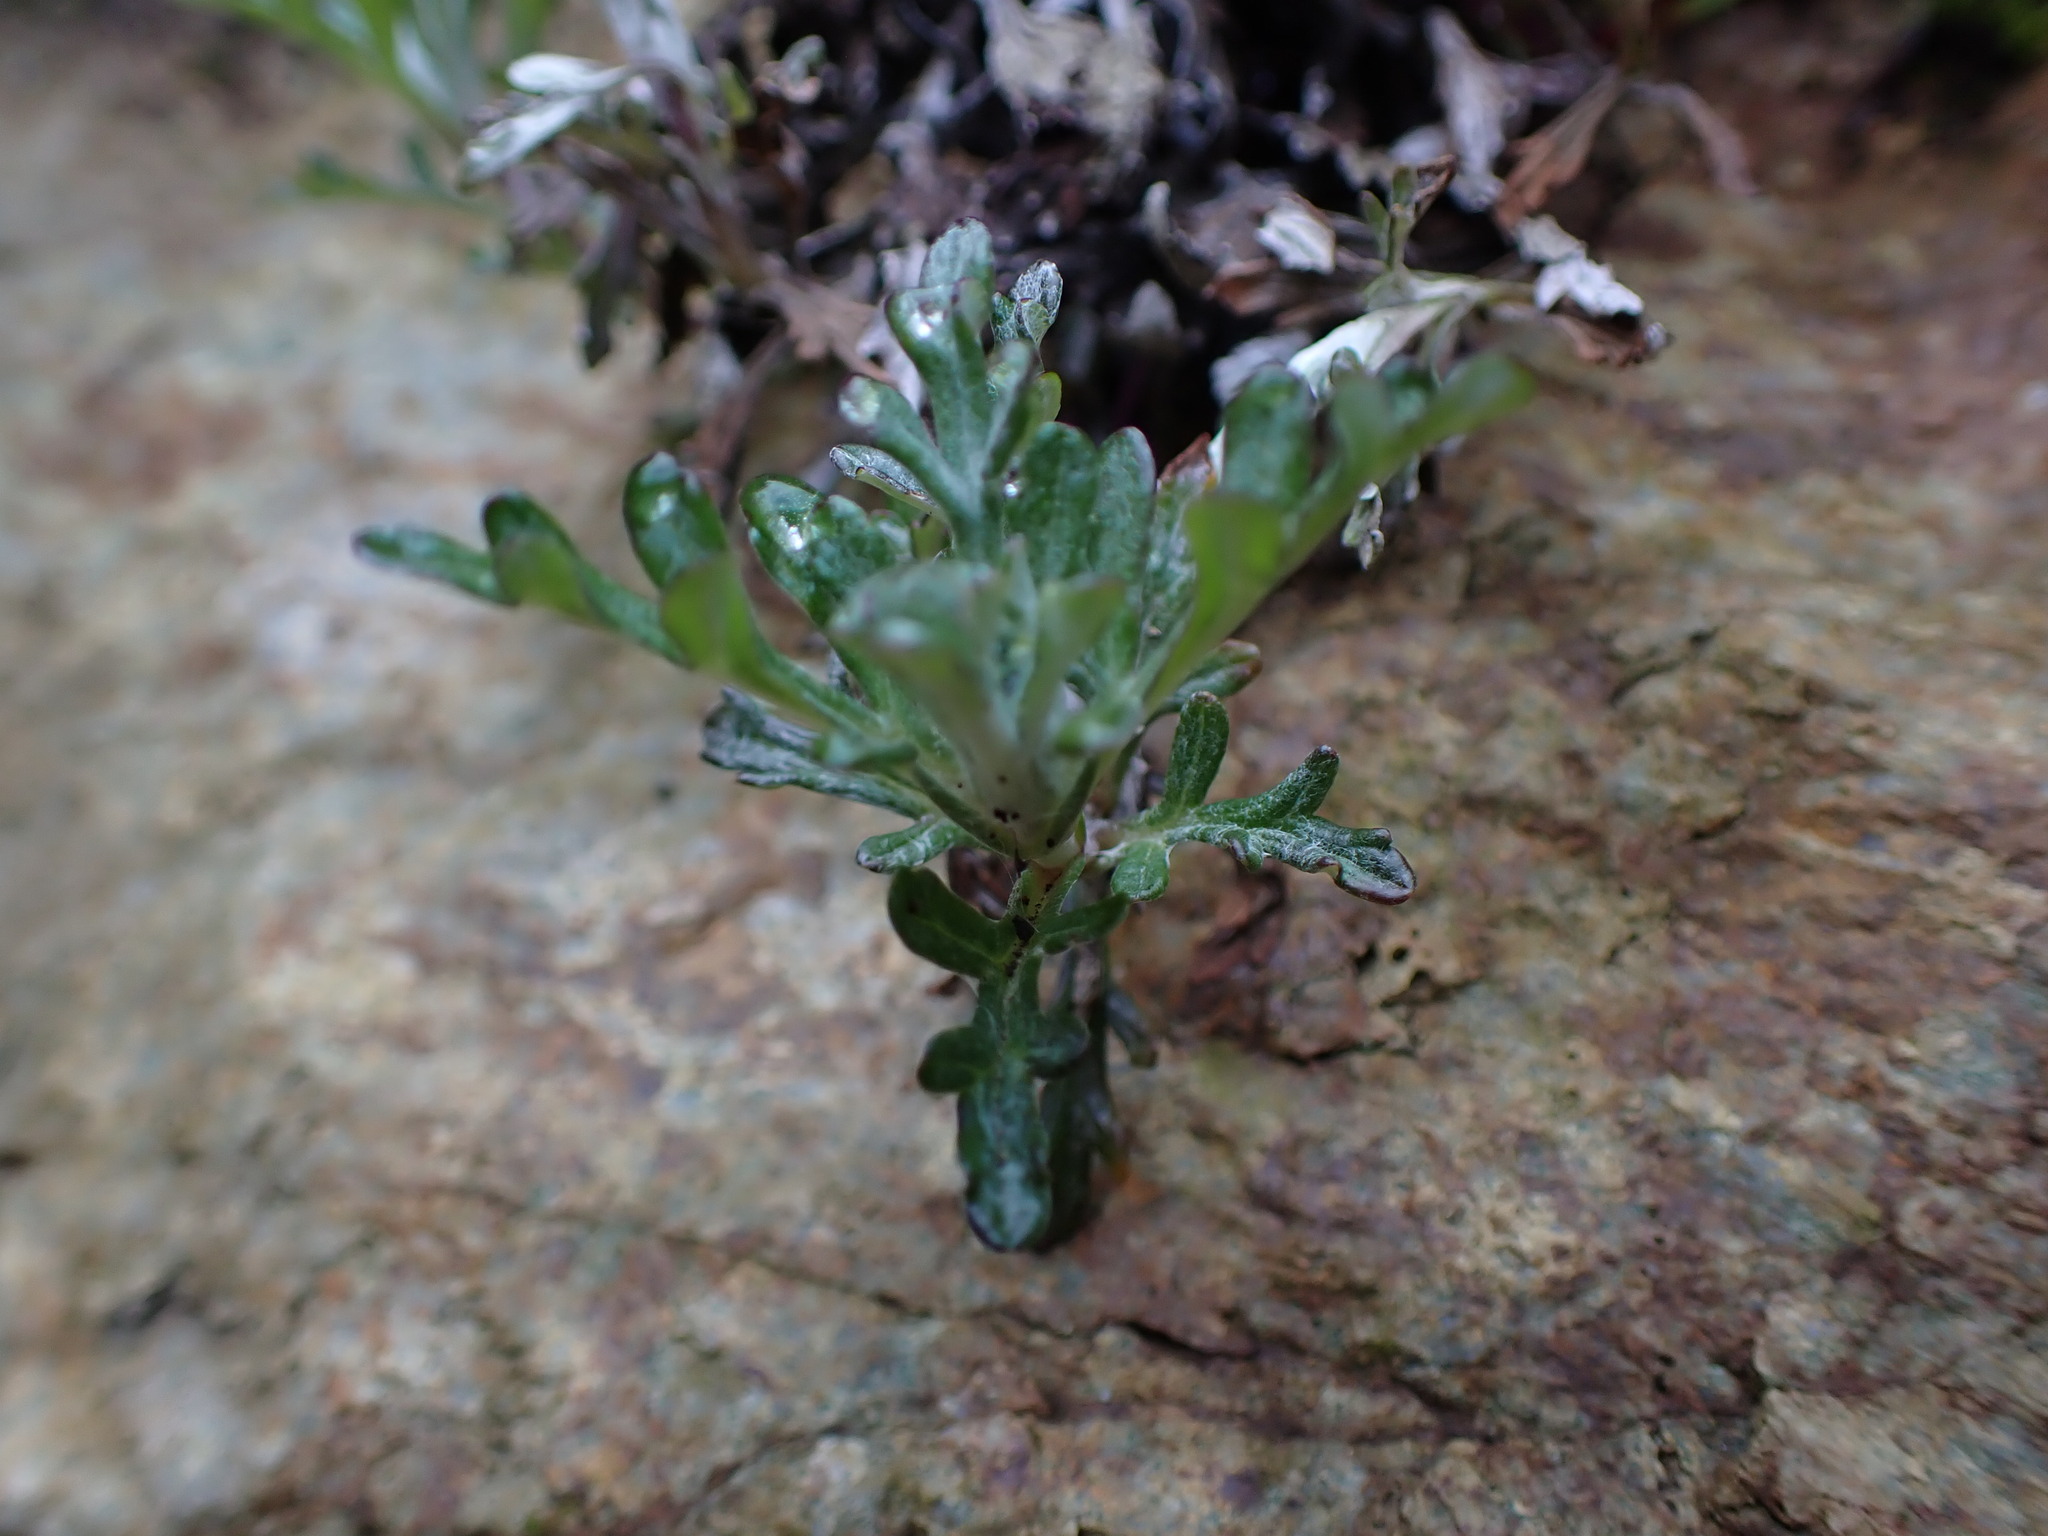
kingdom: Plantae
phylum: Tracheophyta
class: Magnoliopsida
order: Asterales
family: Asteraceae
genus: Eriophyllum
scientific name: Eriophyllum lanatum
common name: Common woolly-sunflower
